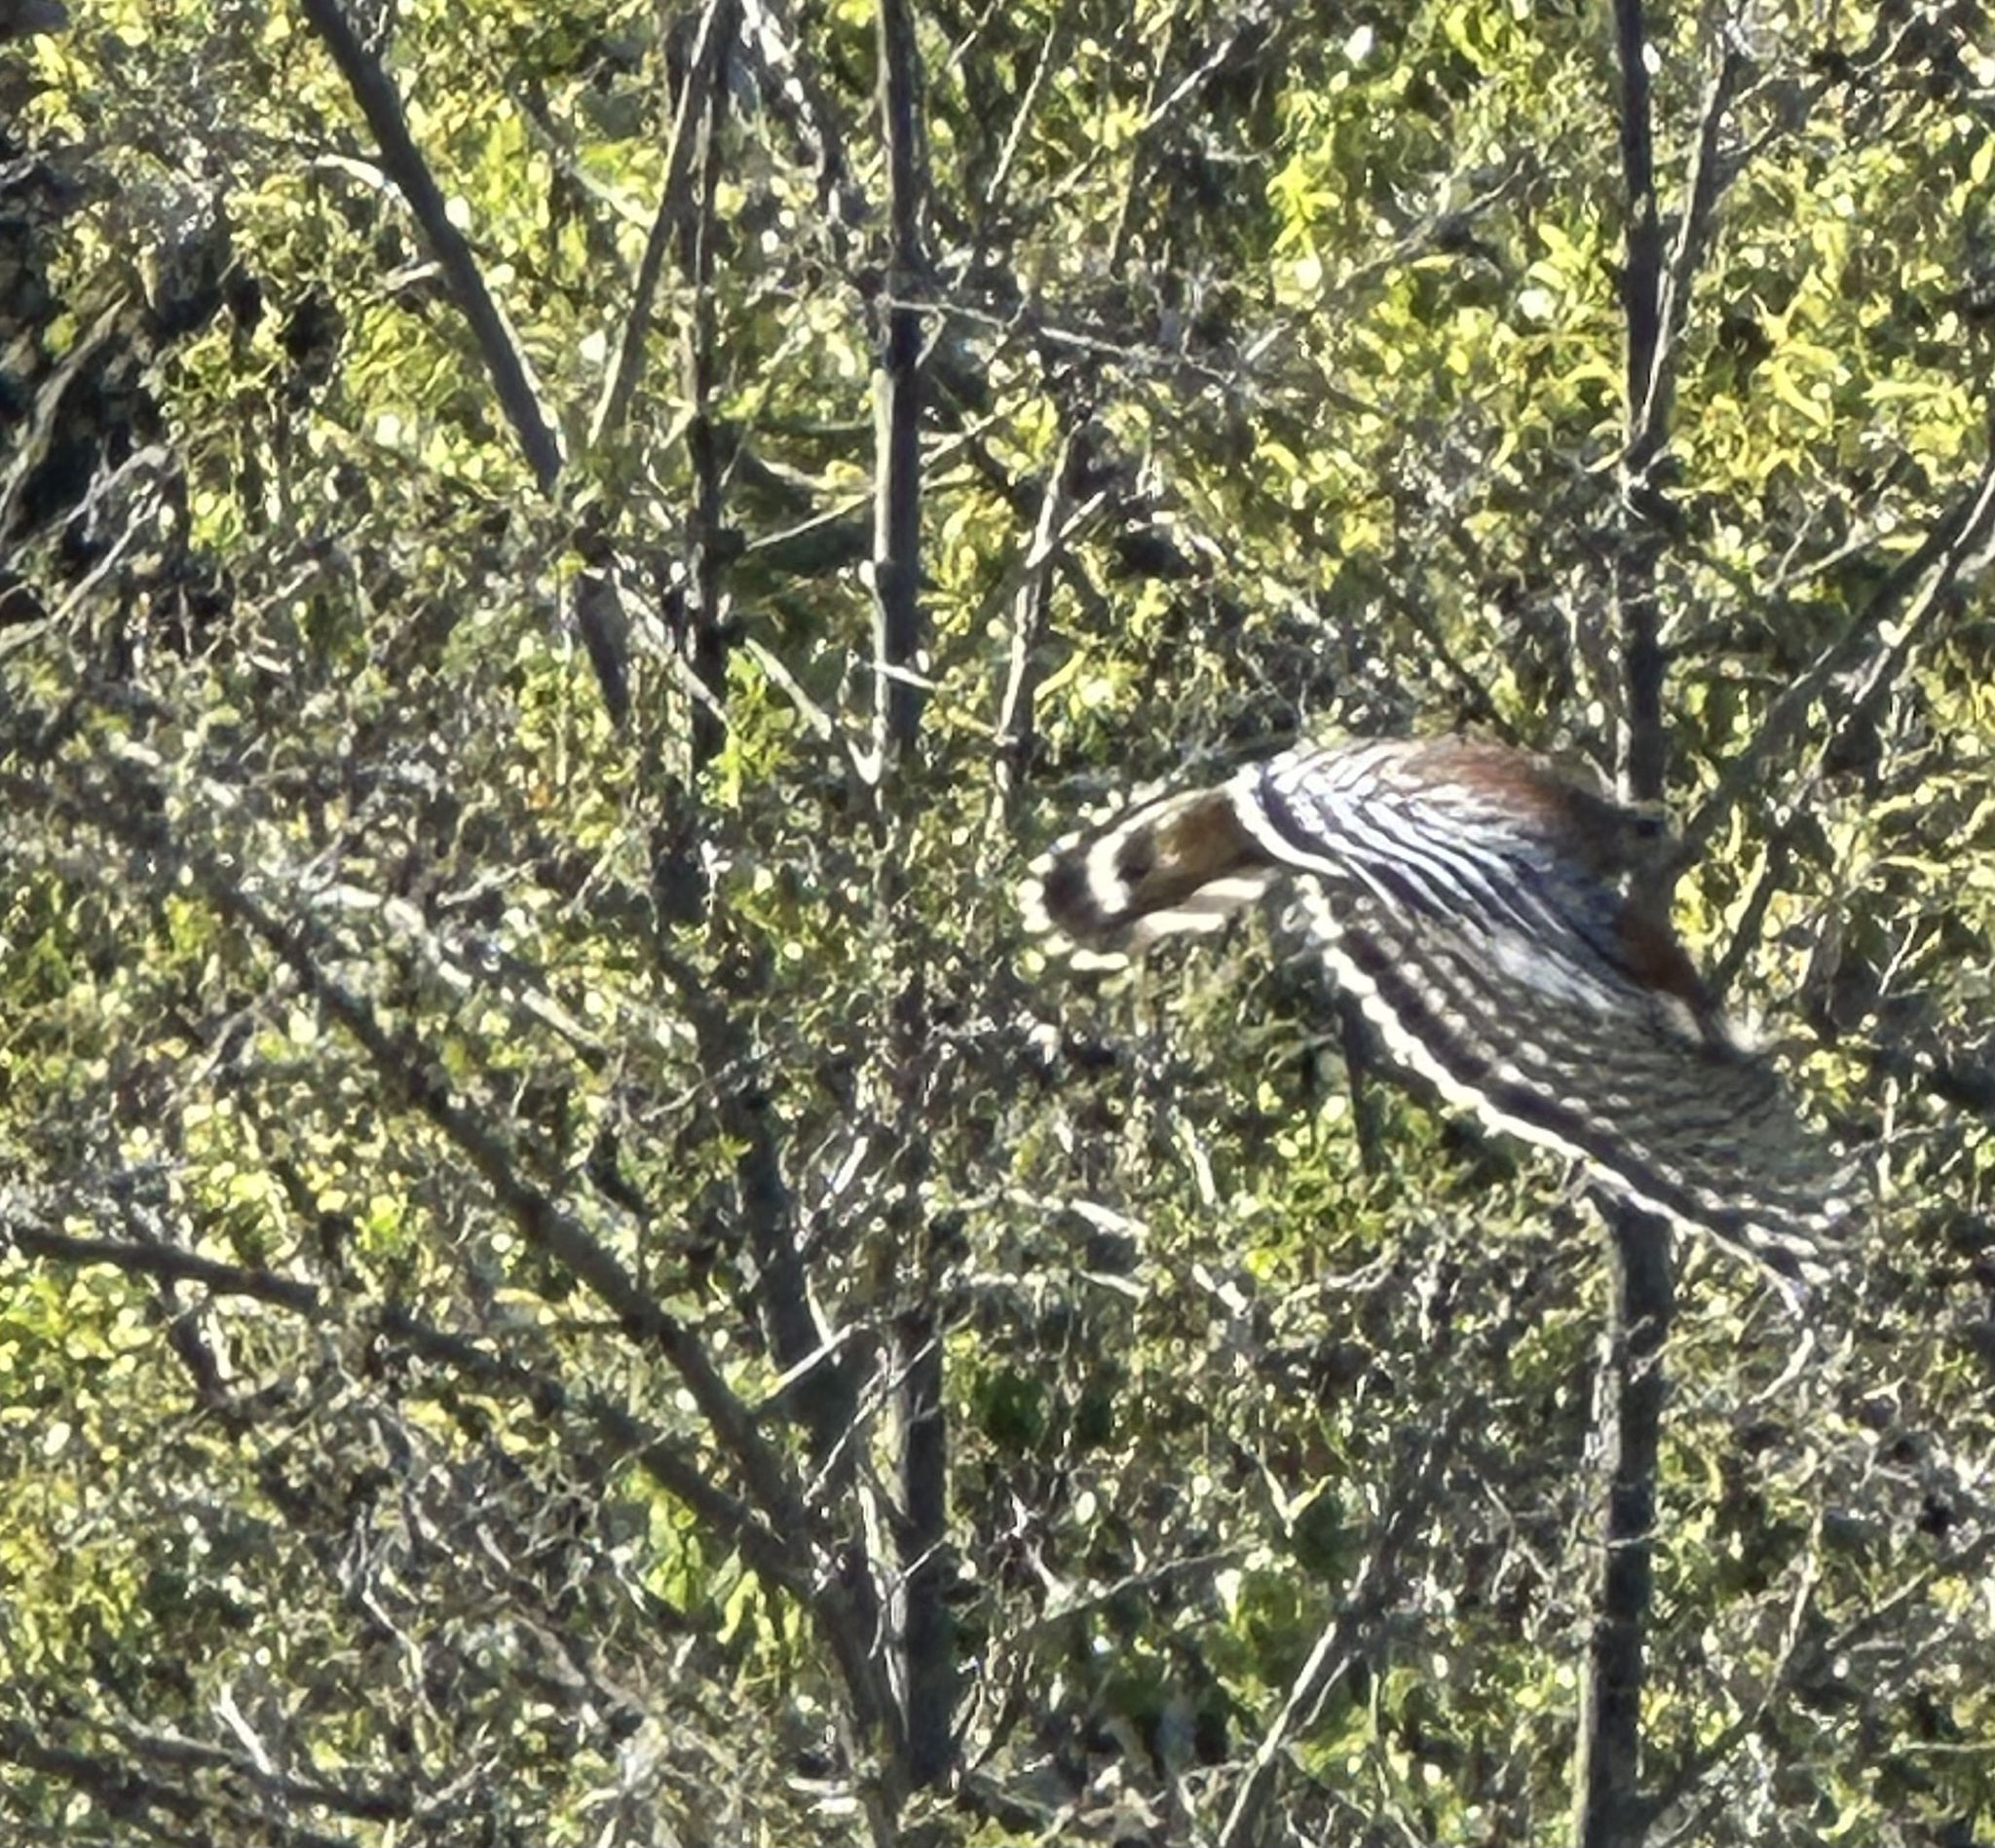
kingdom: Animalia
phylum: Chordata
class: Aves
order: Accipitriformes
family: Accipitridae
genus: Buteo
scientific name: Buteo lineatus
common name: Red-shouldered hawk
